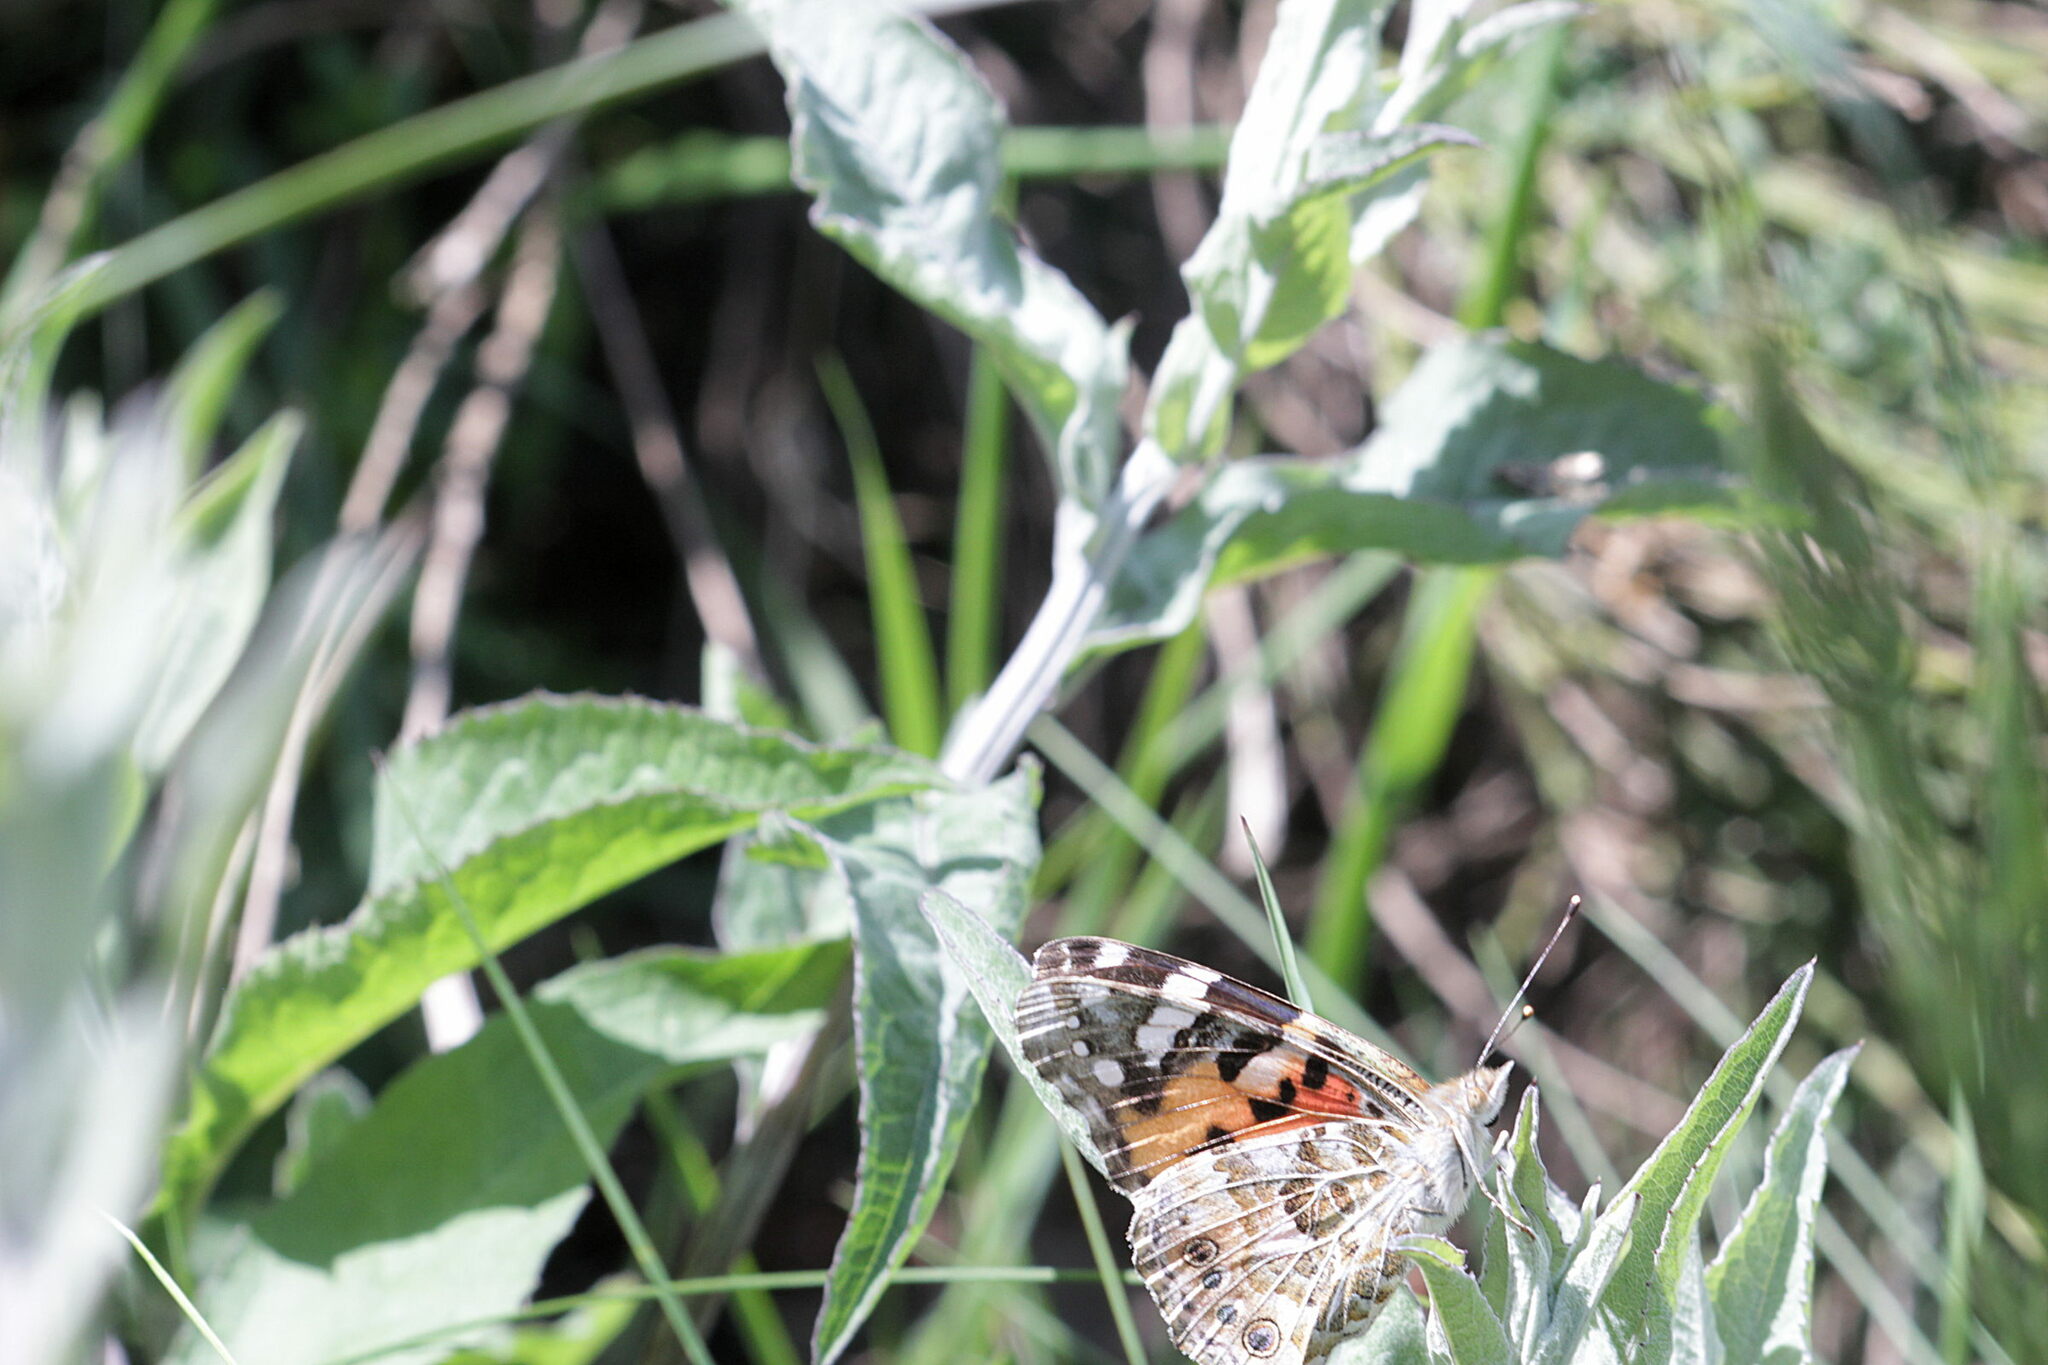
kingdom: Animalia
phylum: Arthropoda
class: Insecta
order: Lepidoptera
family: Nymphalidae
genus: Vanessa
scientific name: Vanessa cardui
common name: Painted lady
